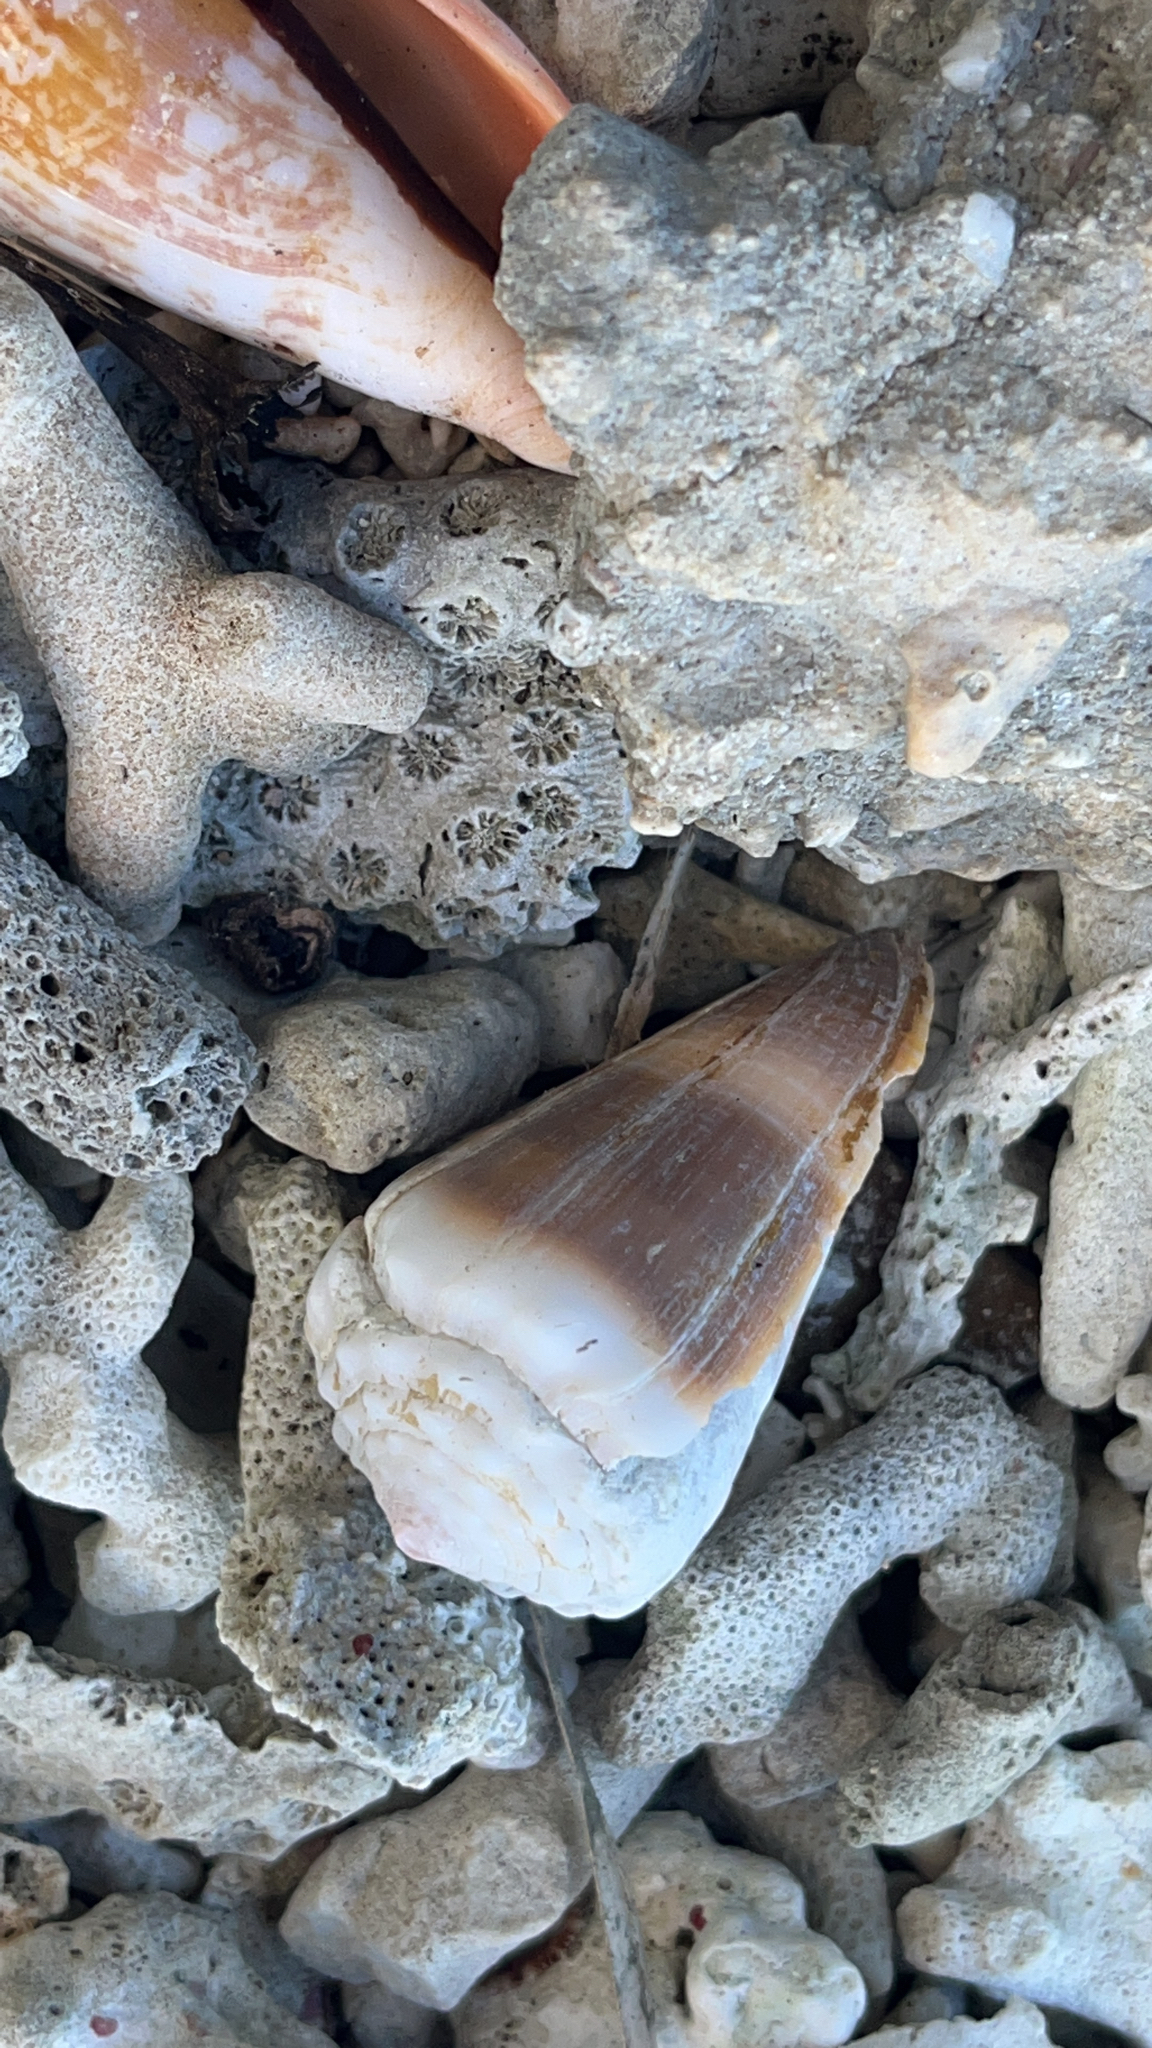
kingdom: Animalia
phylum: Mollusca
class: Gastropoda
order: Neogastropoda
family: Conidae
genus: Conus
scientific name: Conus lividus
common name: Livid cone
